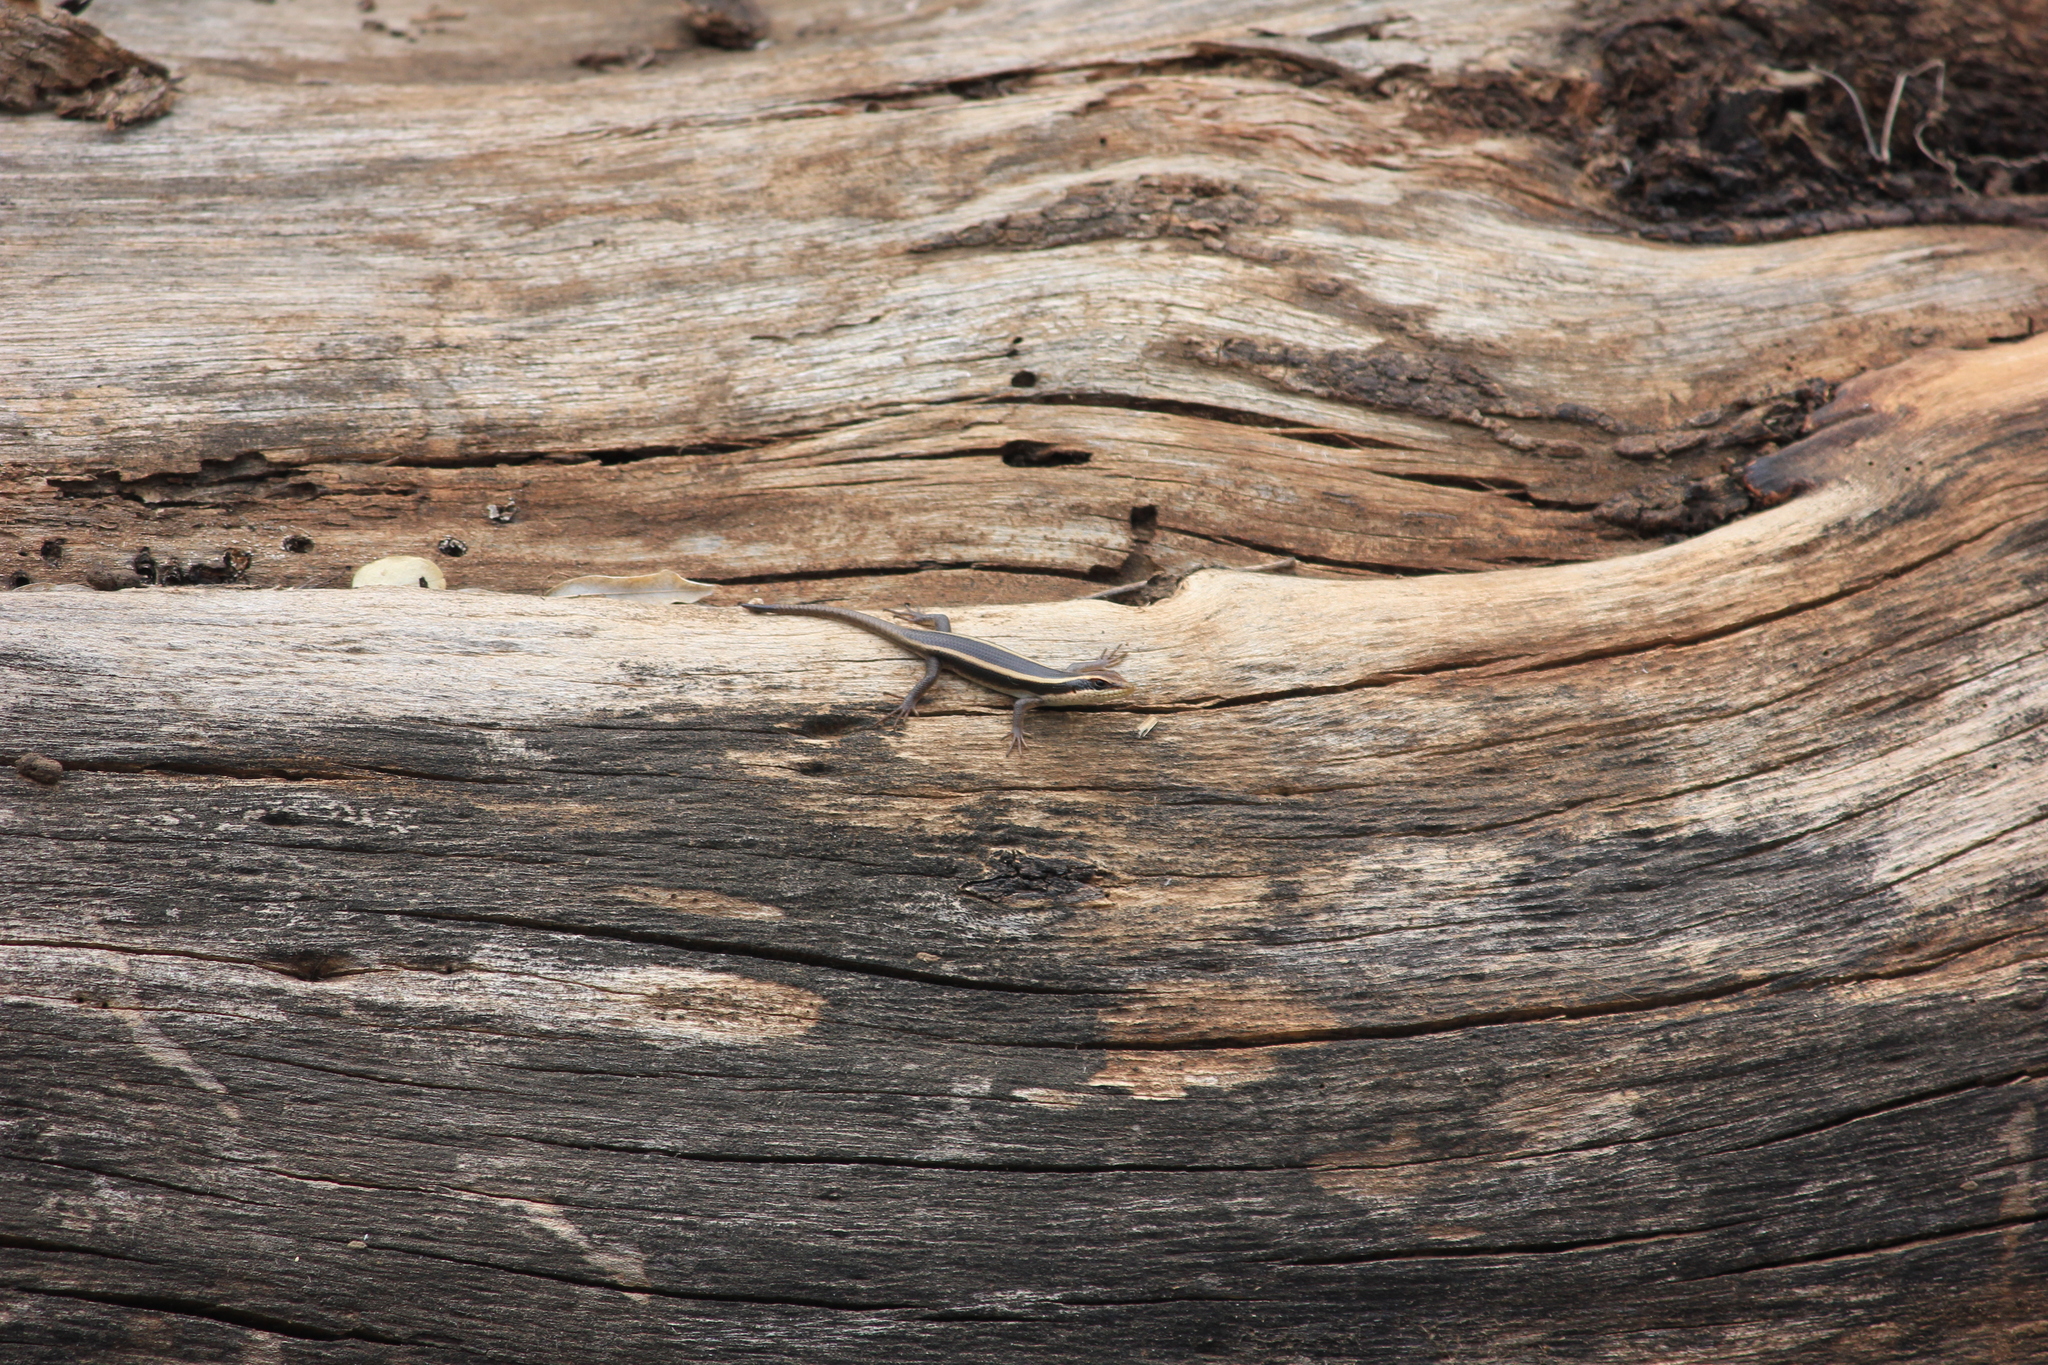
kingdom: Animalia
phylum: Chordata
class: Squamata
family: Scincidae
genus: Trachylepis
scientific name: Trachylepis striata
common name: African striped mabuya
